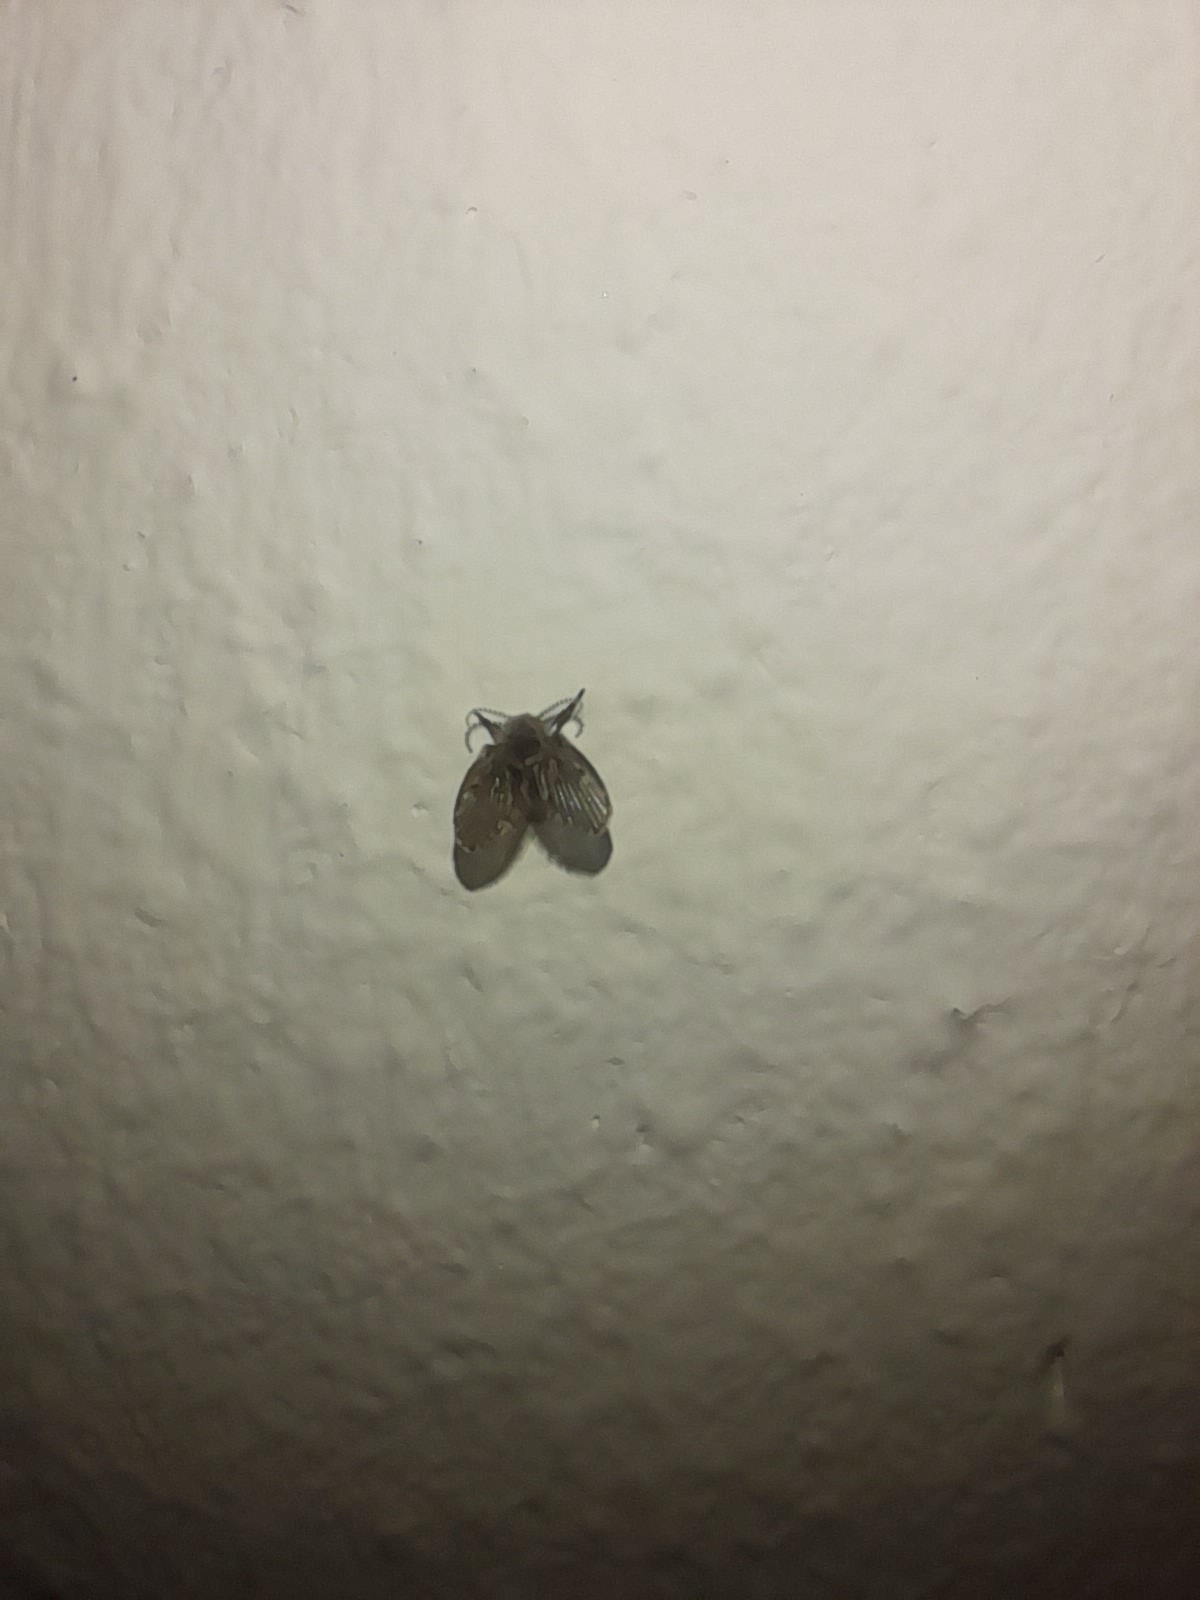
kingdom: Animalia
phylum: Arthropoda
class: Insecta
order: Diptera
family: Psychodidae
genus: Clogmia
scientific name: Clogmia albipunctatus
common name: White-spotted moth fly
